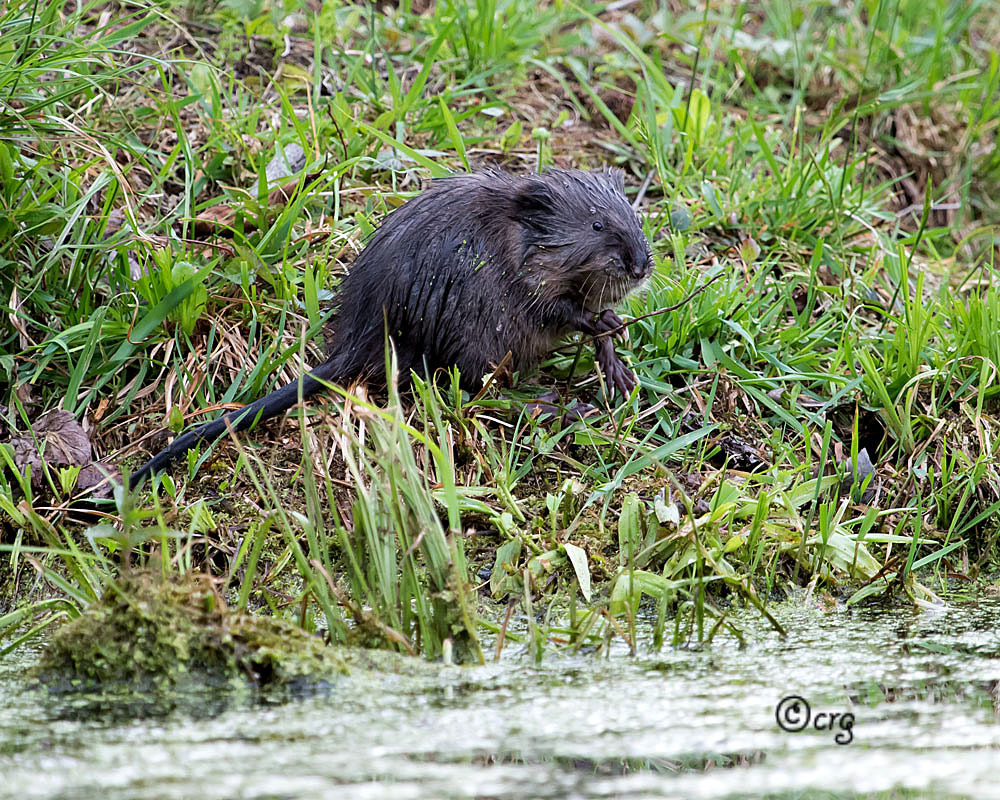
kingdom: Animalia
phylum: Chordata
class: Mammalia
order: Rodentia
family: Cricetidae
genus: Ondatra
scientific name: Ondatra zibethicus
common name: Muskrat
